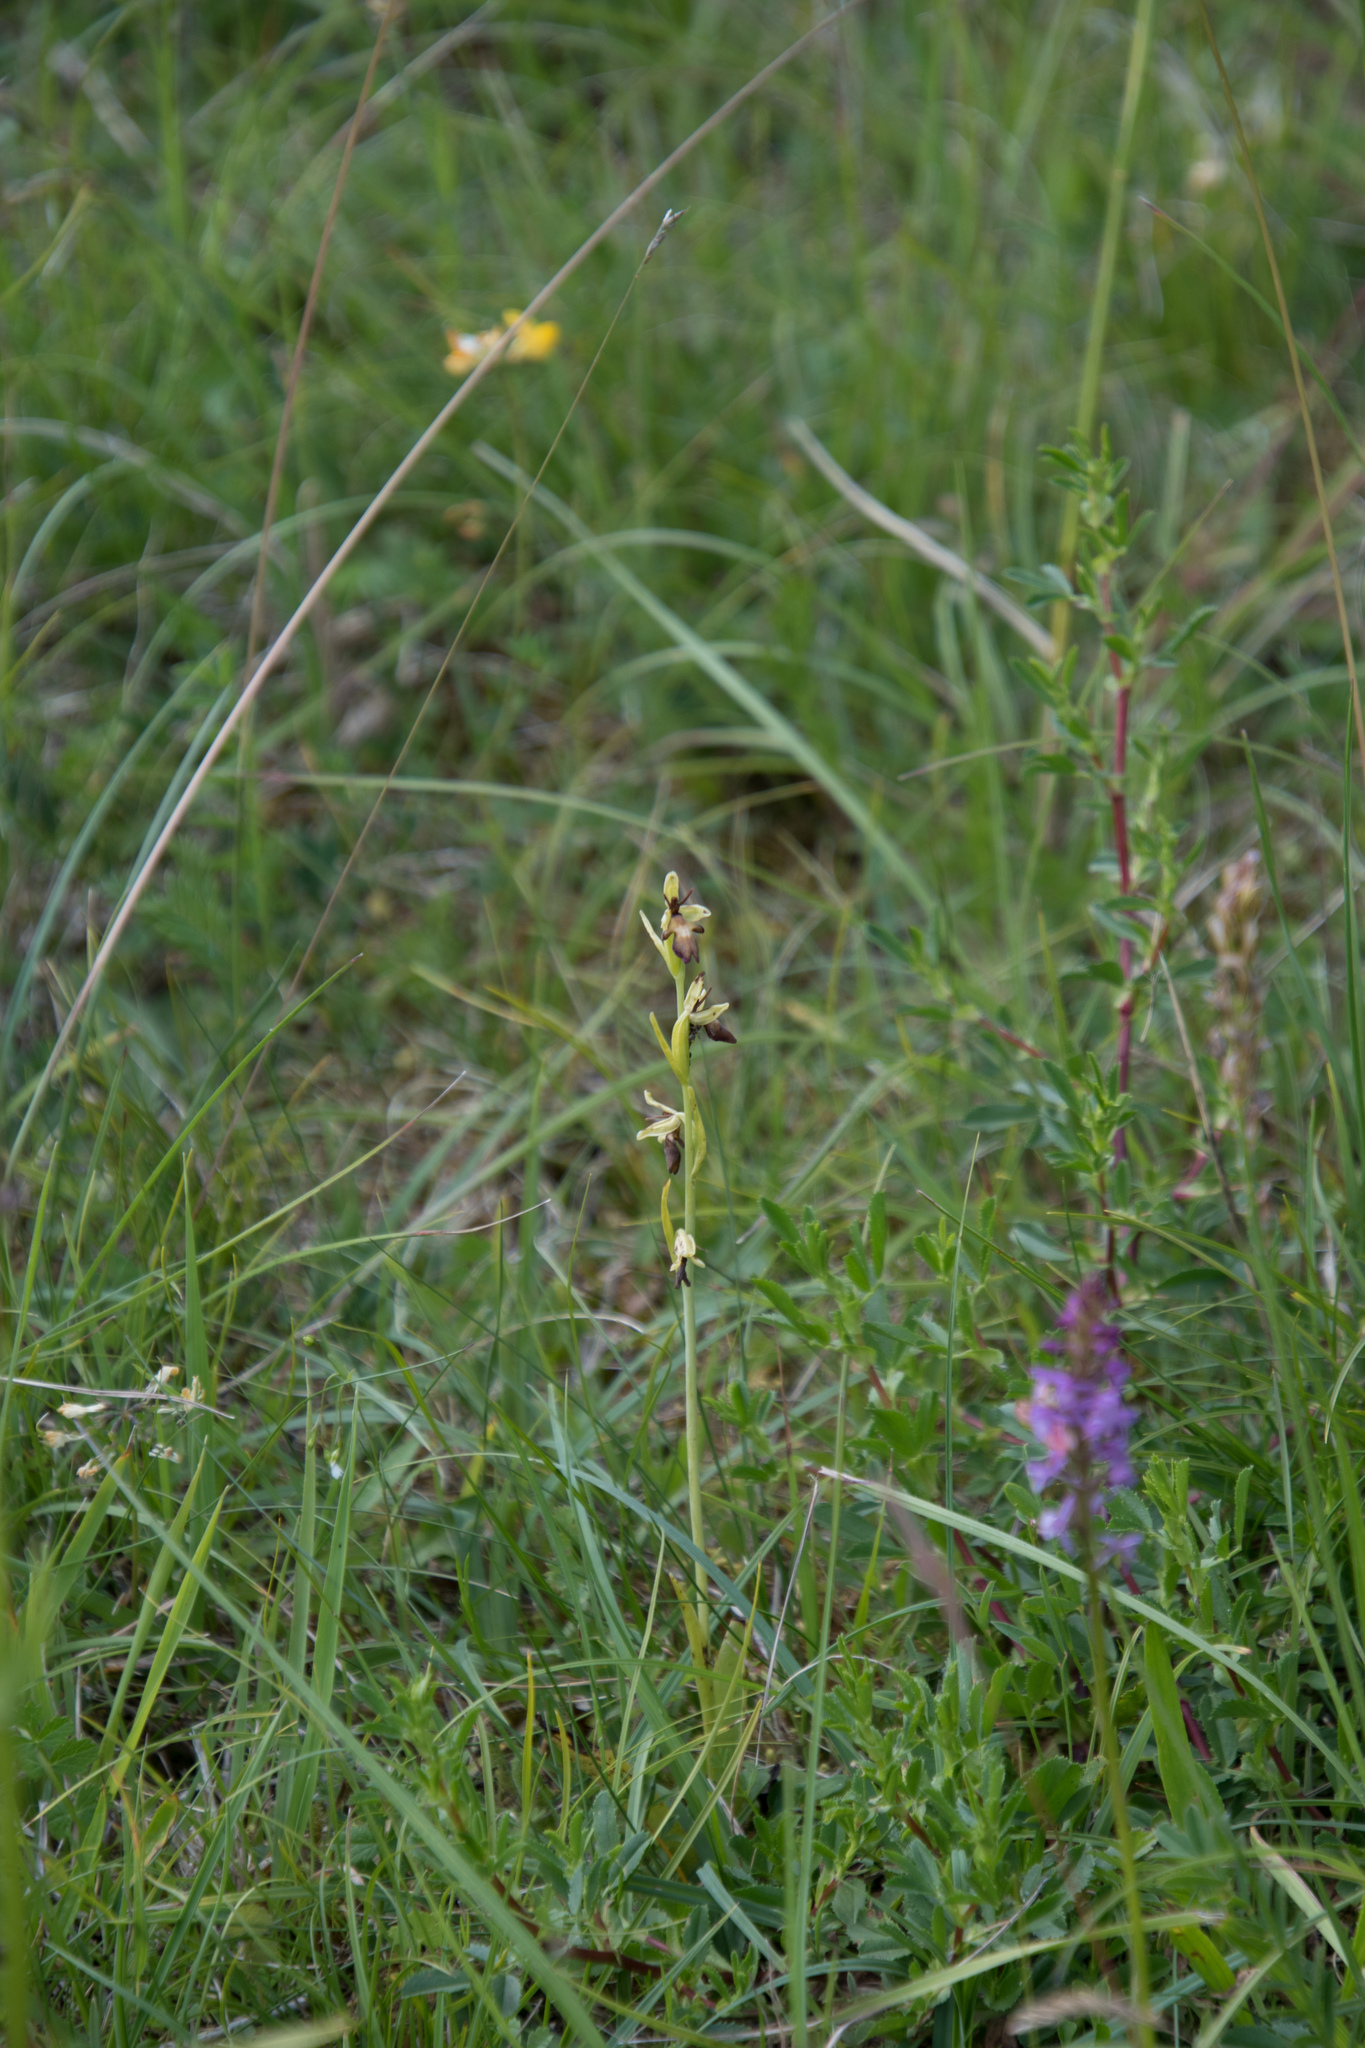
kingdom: Plantae
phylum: Tracheophyta
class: Liliopsida
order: Asparagales
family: Orchidaceae
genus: Ophrys
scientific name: Ophrys insectifera
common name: Fly orchid
